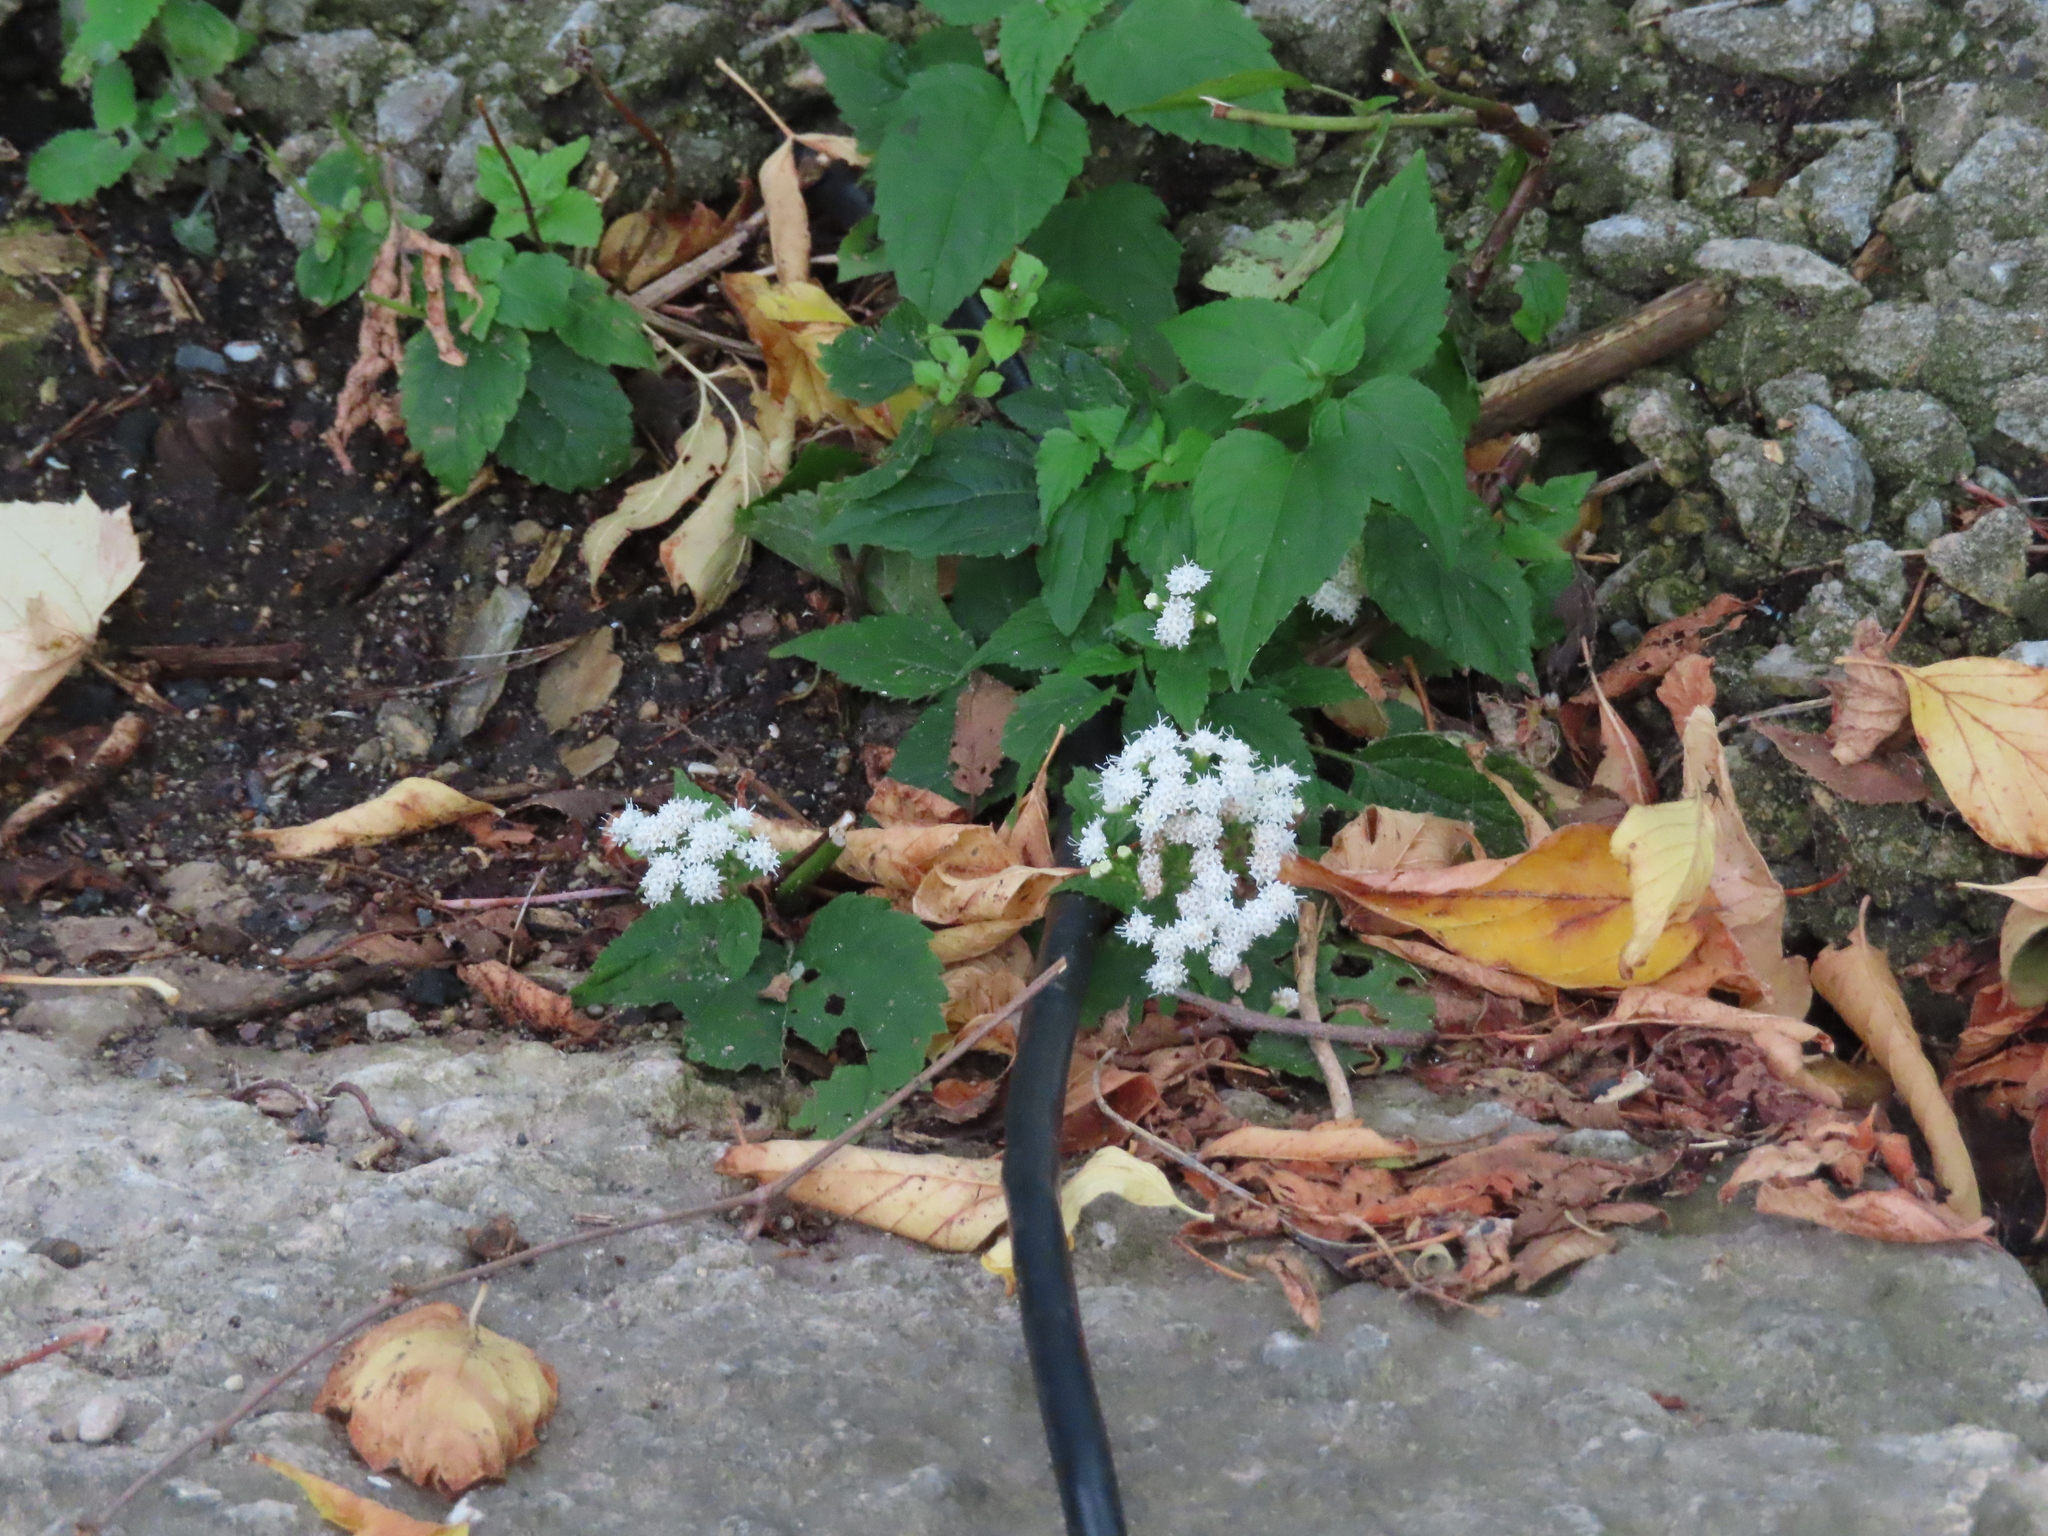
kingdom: Plantae
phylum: Tracheophyta
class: Magnoliopsida
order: Asterales
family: Asteraceae
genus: Ageratina
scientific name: Ageratina altissima
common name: White snakeroot
